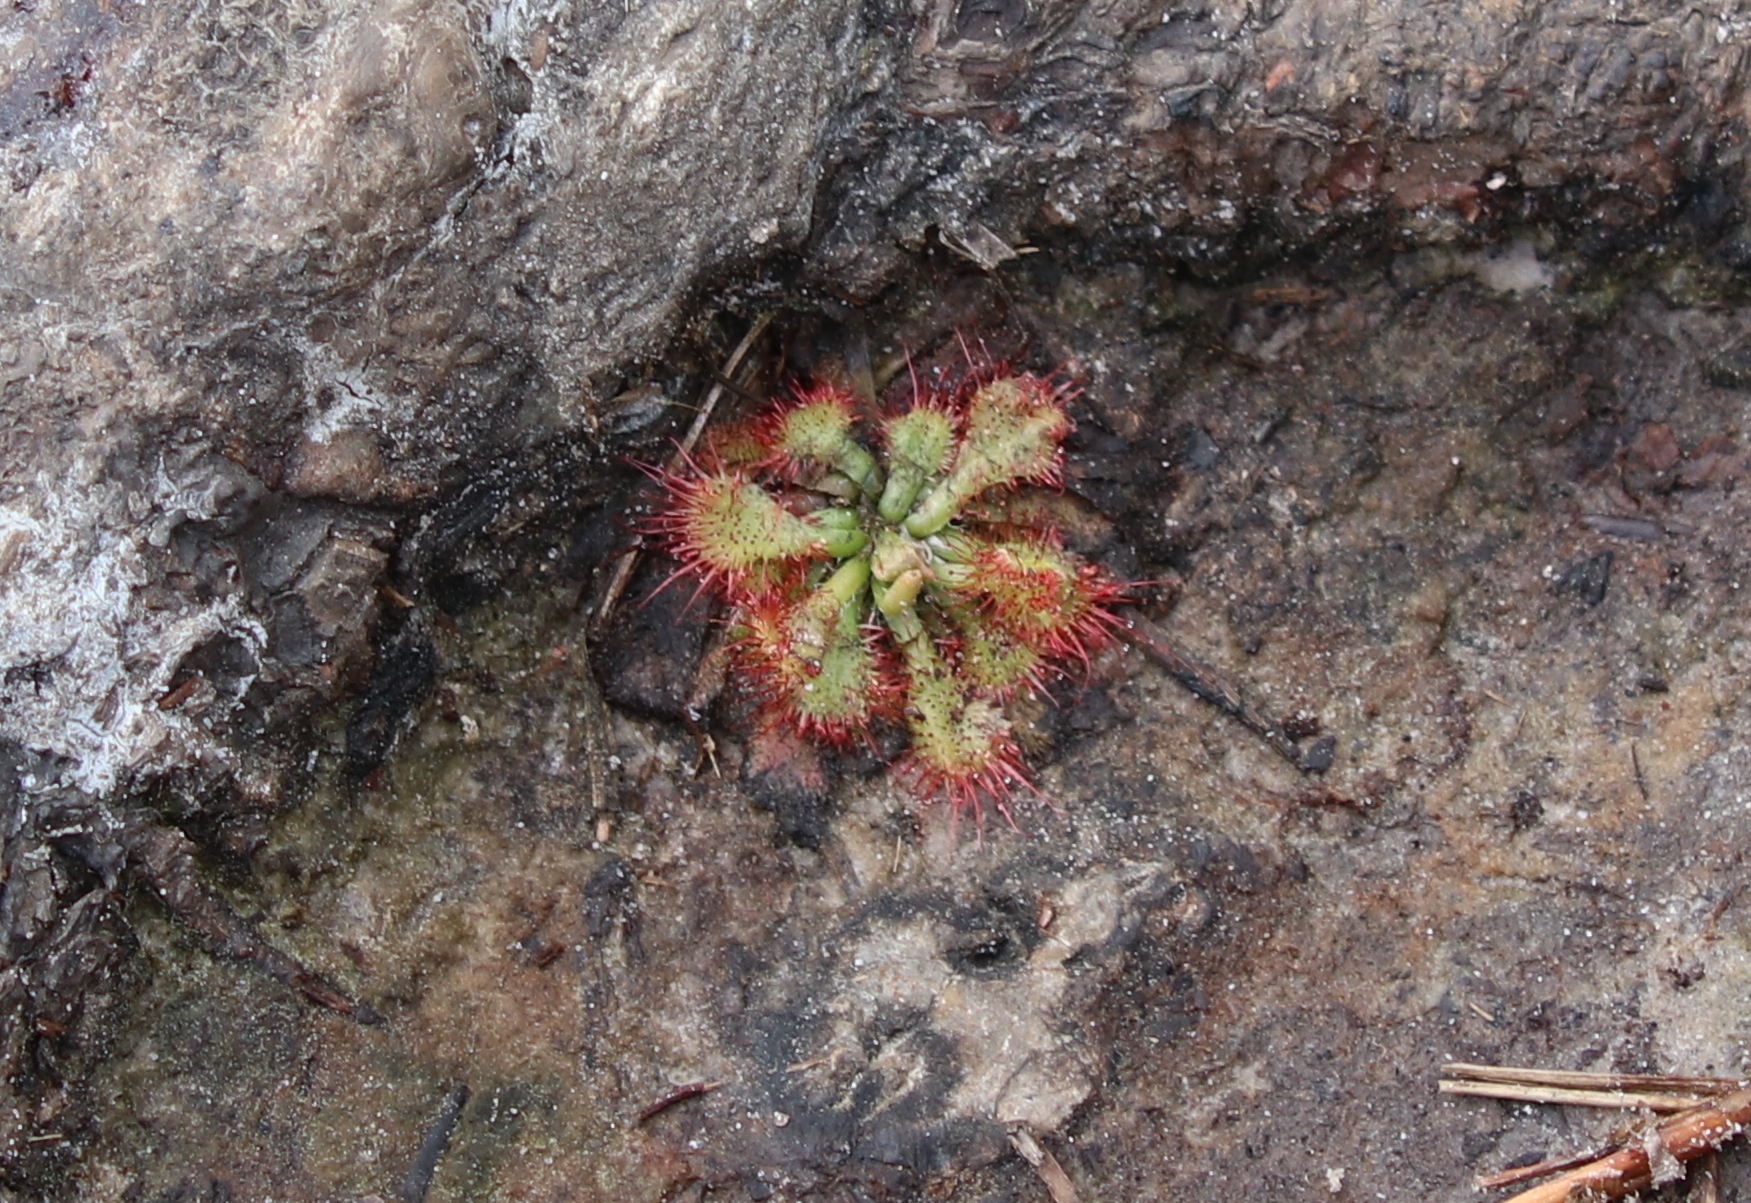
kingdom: Plantae
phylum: Tracheophyta
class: Magnoliopsida
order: Caryophyllales
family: Droseraceae
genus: Drosera
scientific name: Drosera brevifolia
